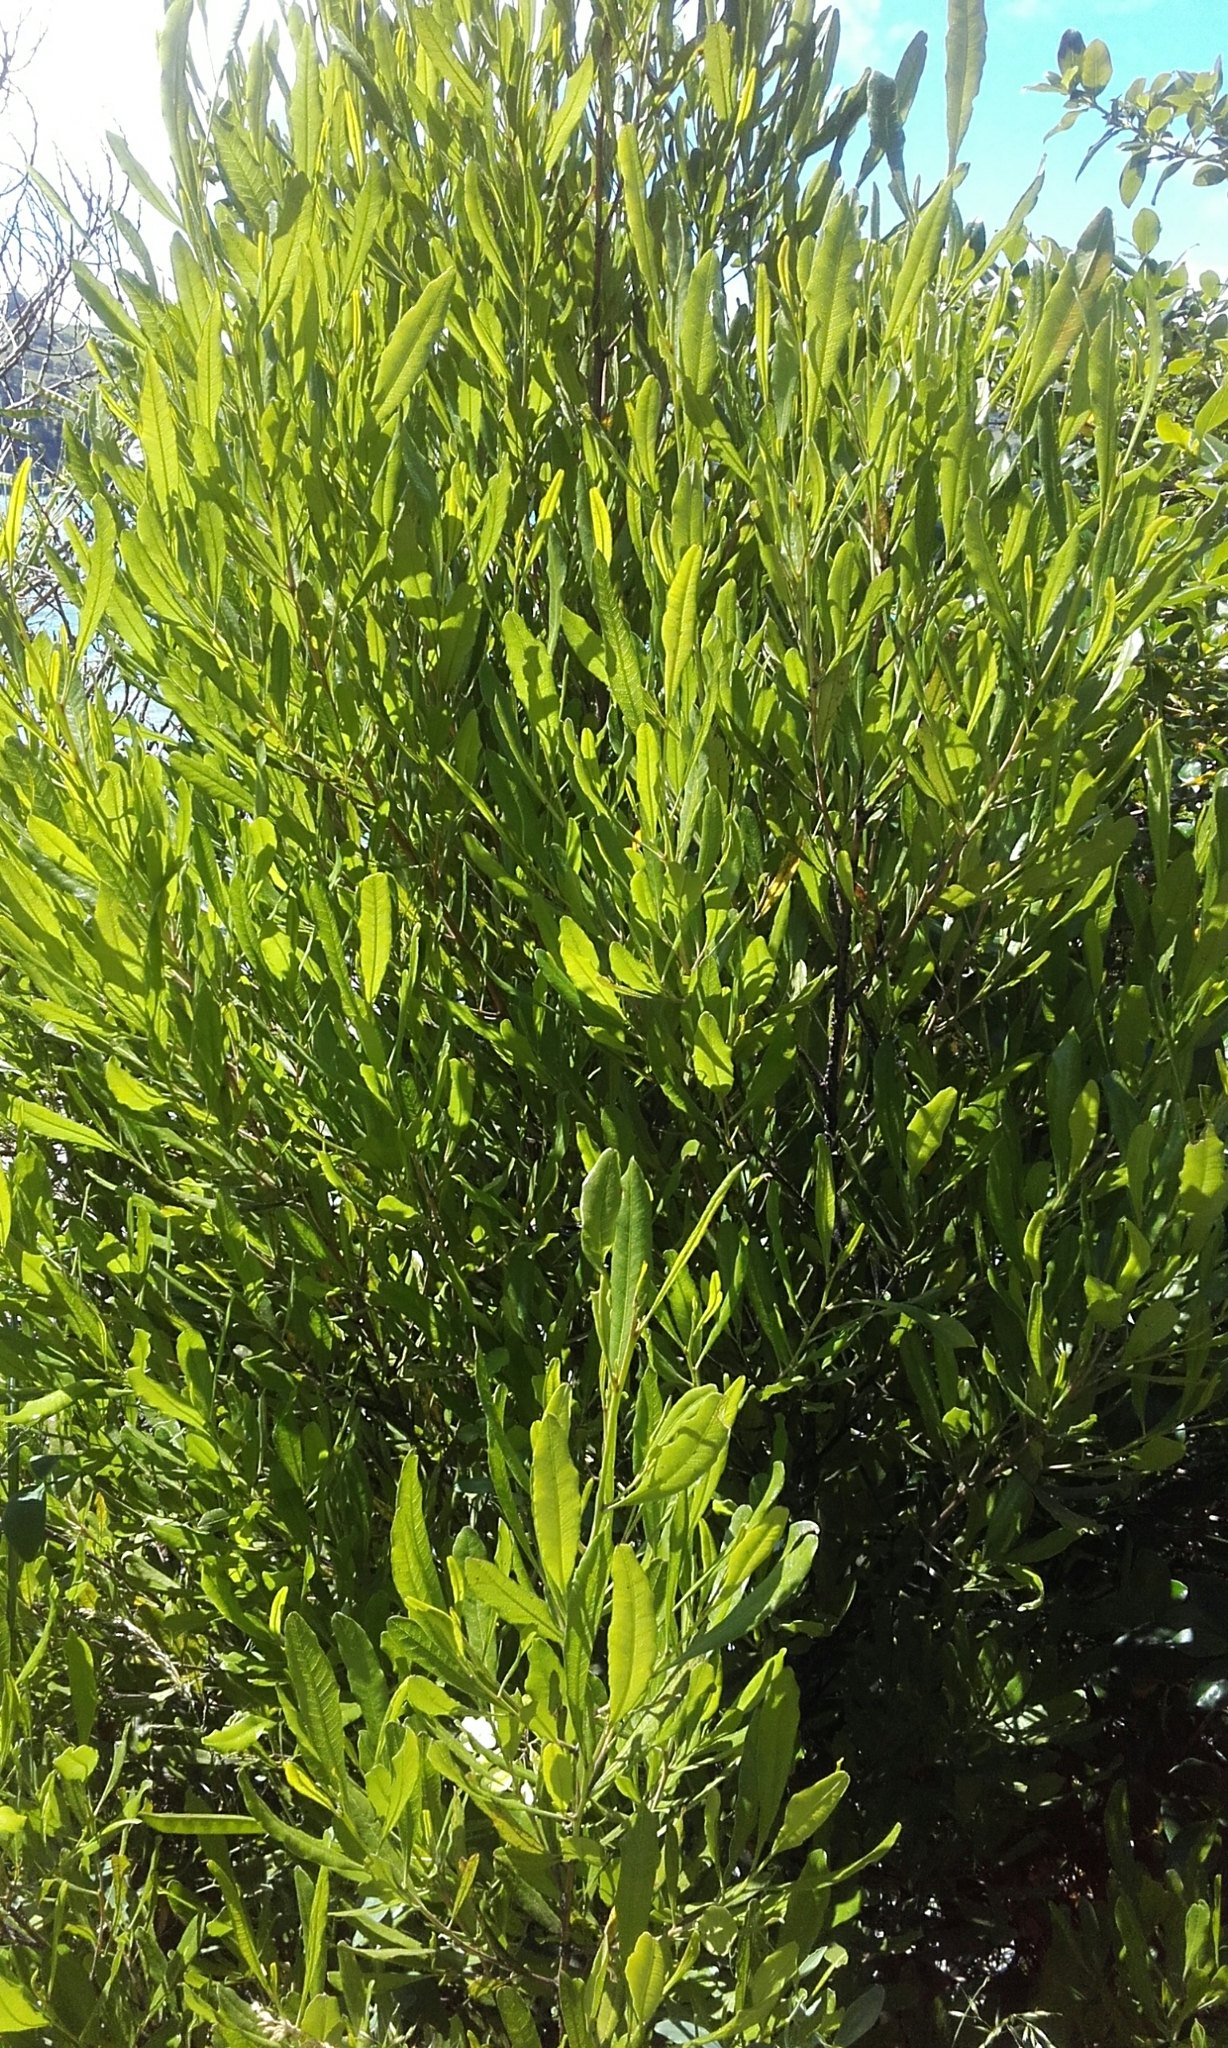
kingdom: Plantae
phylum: Tracheophyta
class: Magnoliopsida
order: Sapindales
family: Sapindaceae
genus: Dodonaea
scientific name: Dodonaea viscosa
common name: Hopbush
